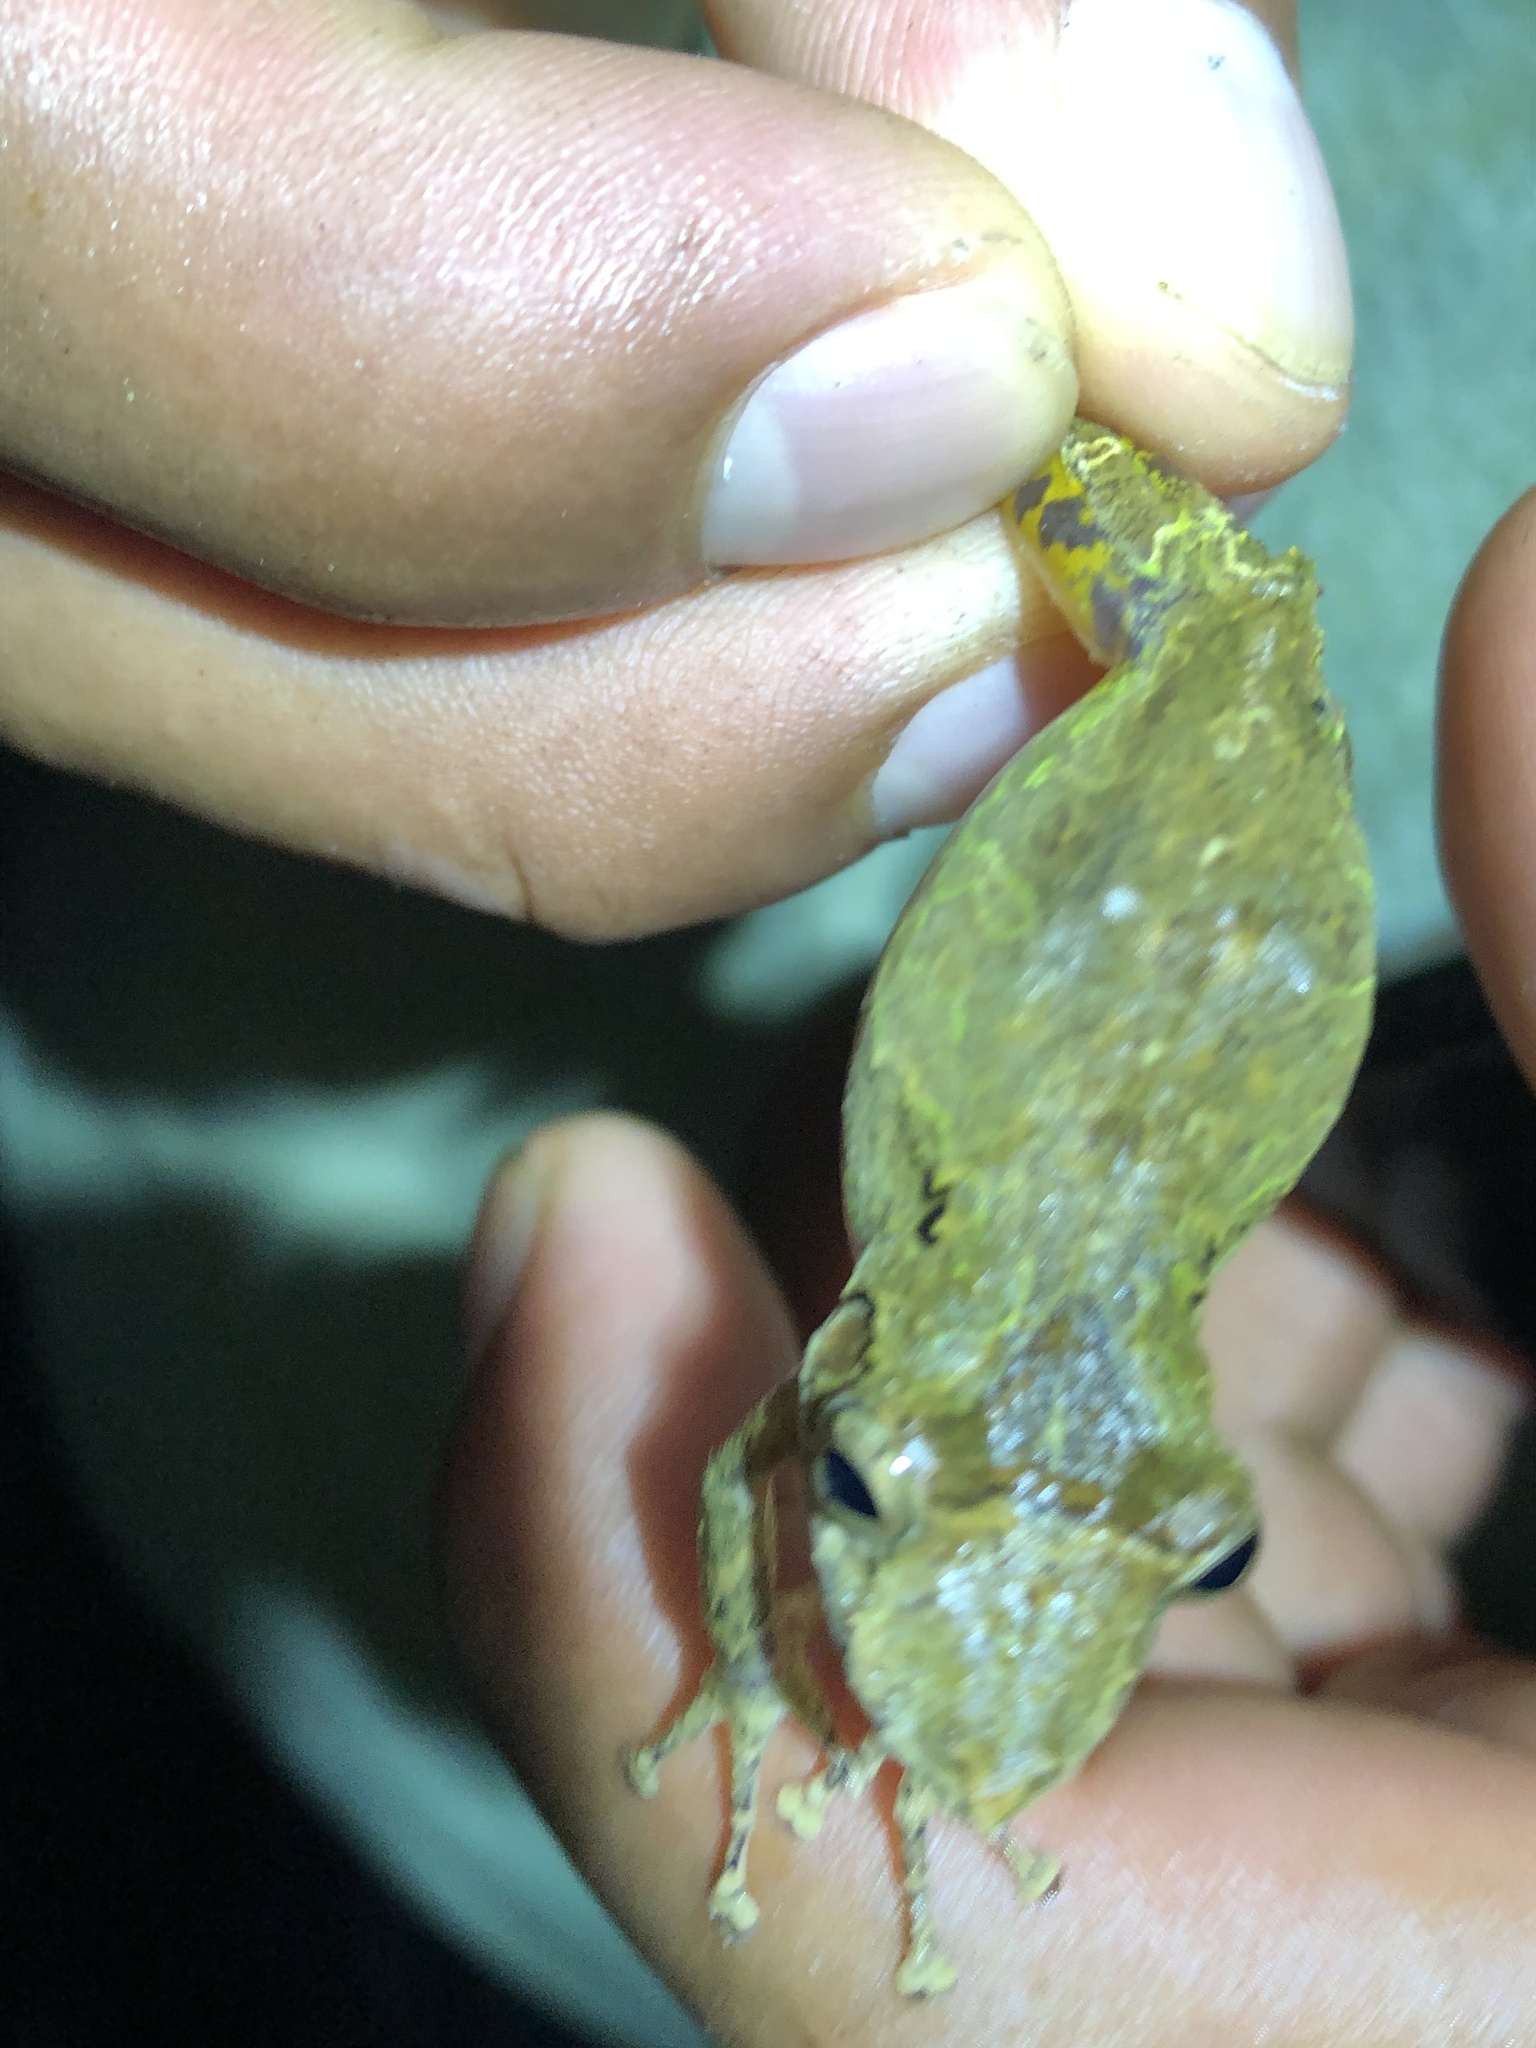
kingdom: Animalia
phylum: Chordata
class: Amphibia
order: Anura
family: Hylidae
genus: Scinax
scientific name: Scinax garbei
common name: Eirunepe snouted treefrog
